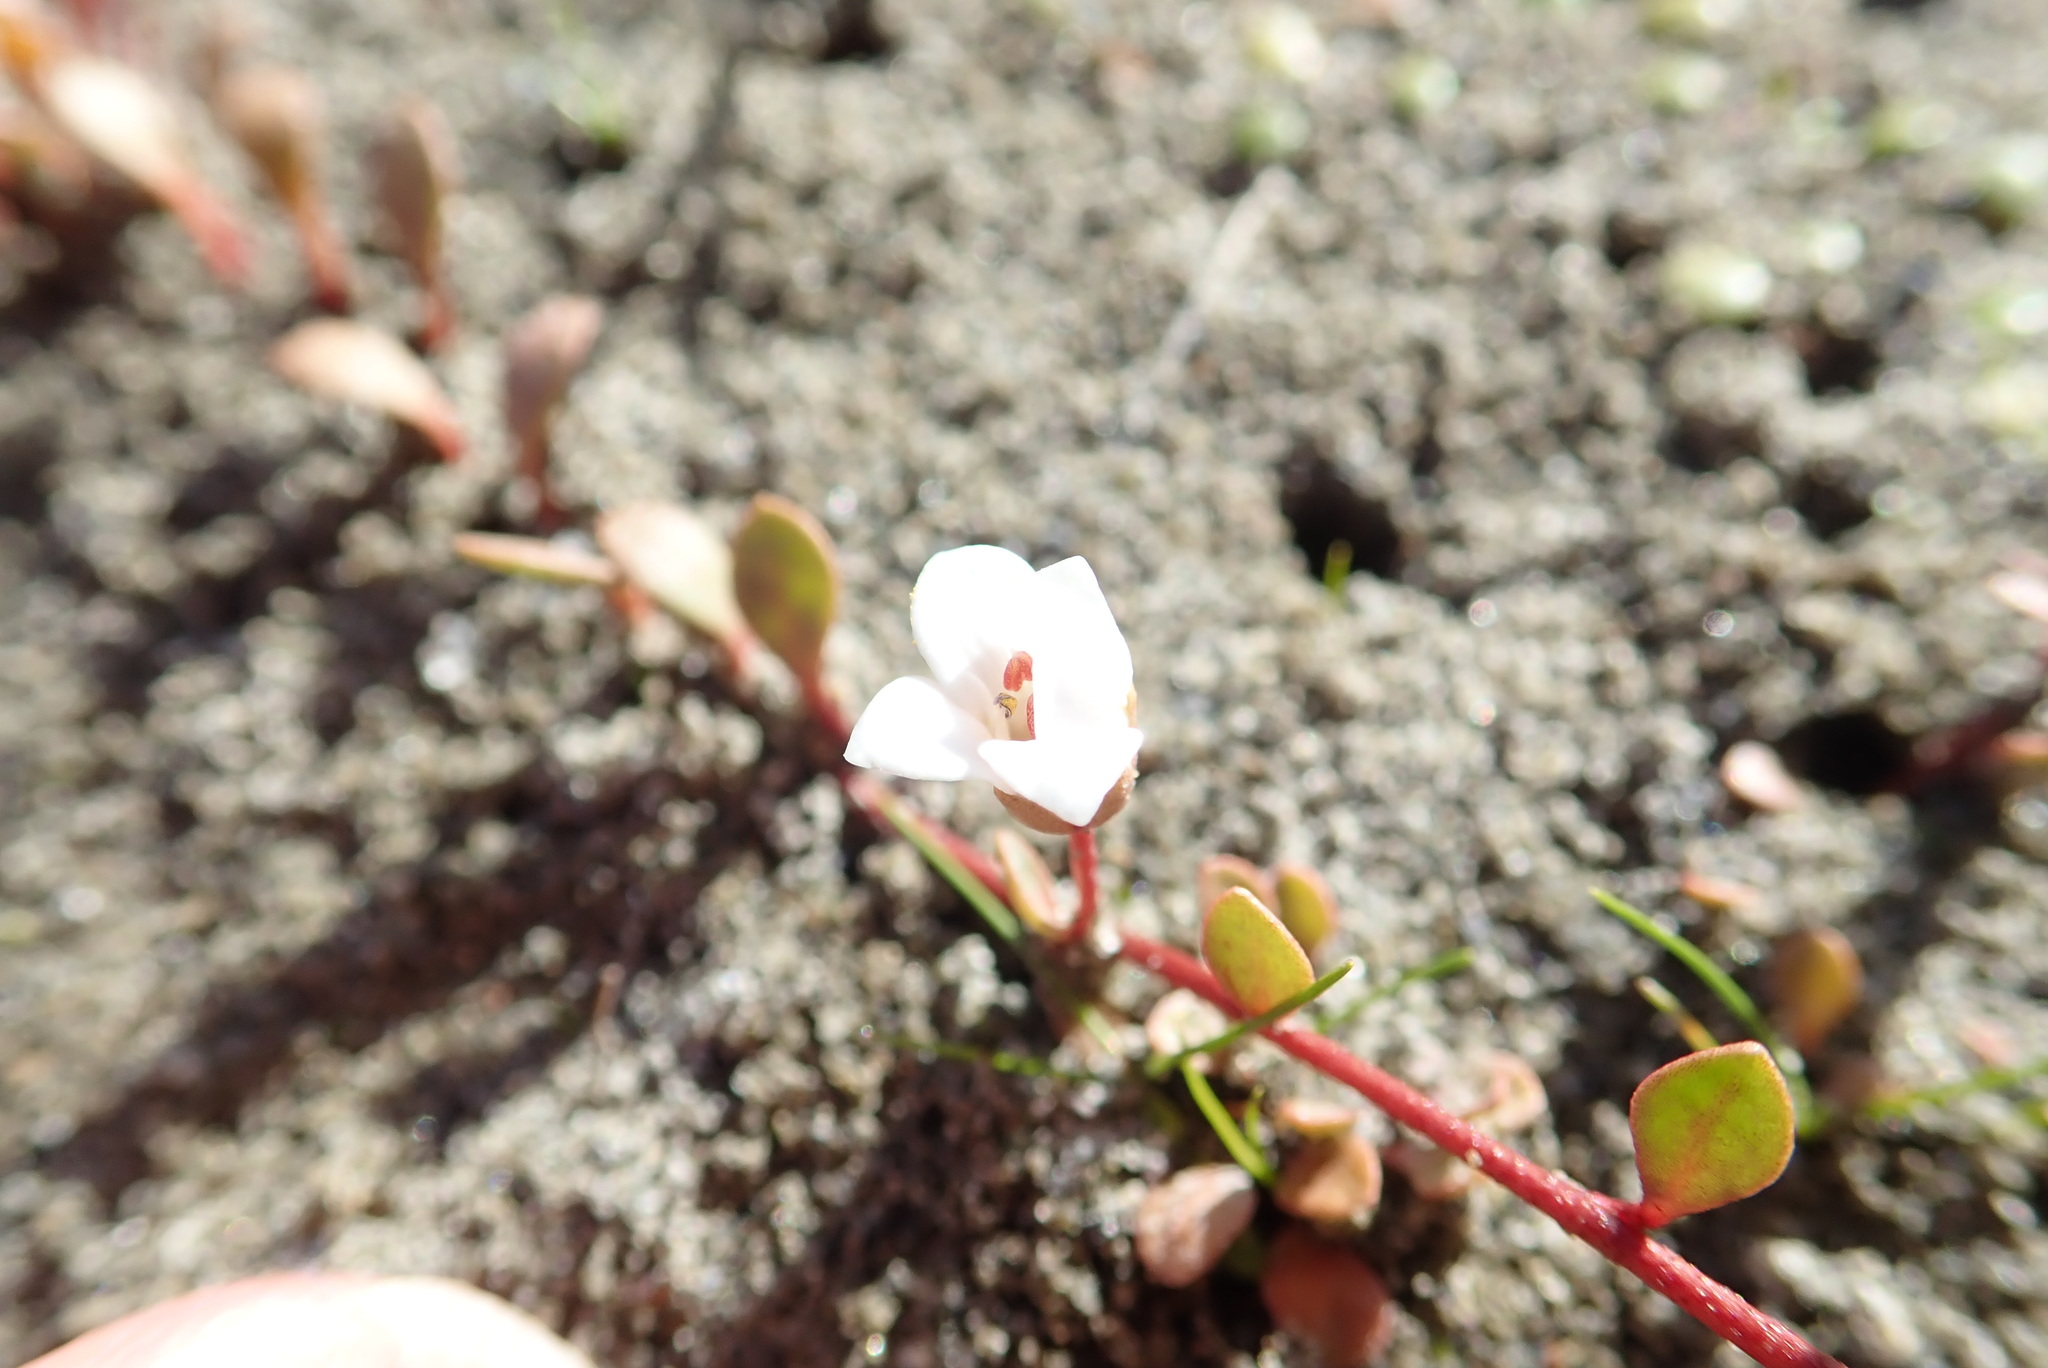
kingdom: Plantae
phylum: Tracheophyta
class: Magnoliopsida
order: Ericales
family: Primulaceae
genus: Samolus
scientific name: Samolus repens
